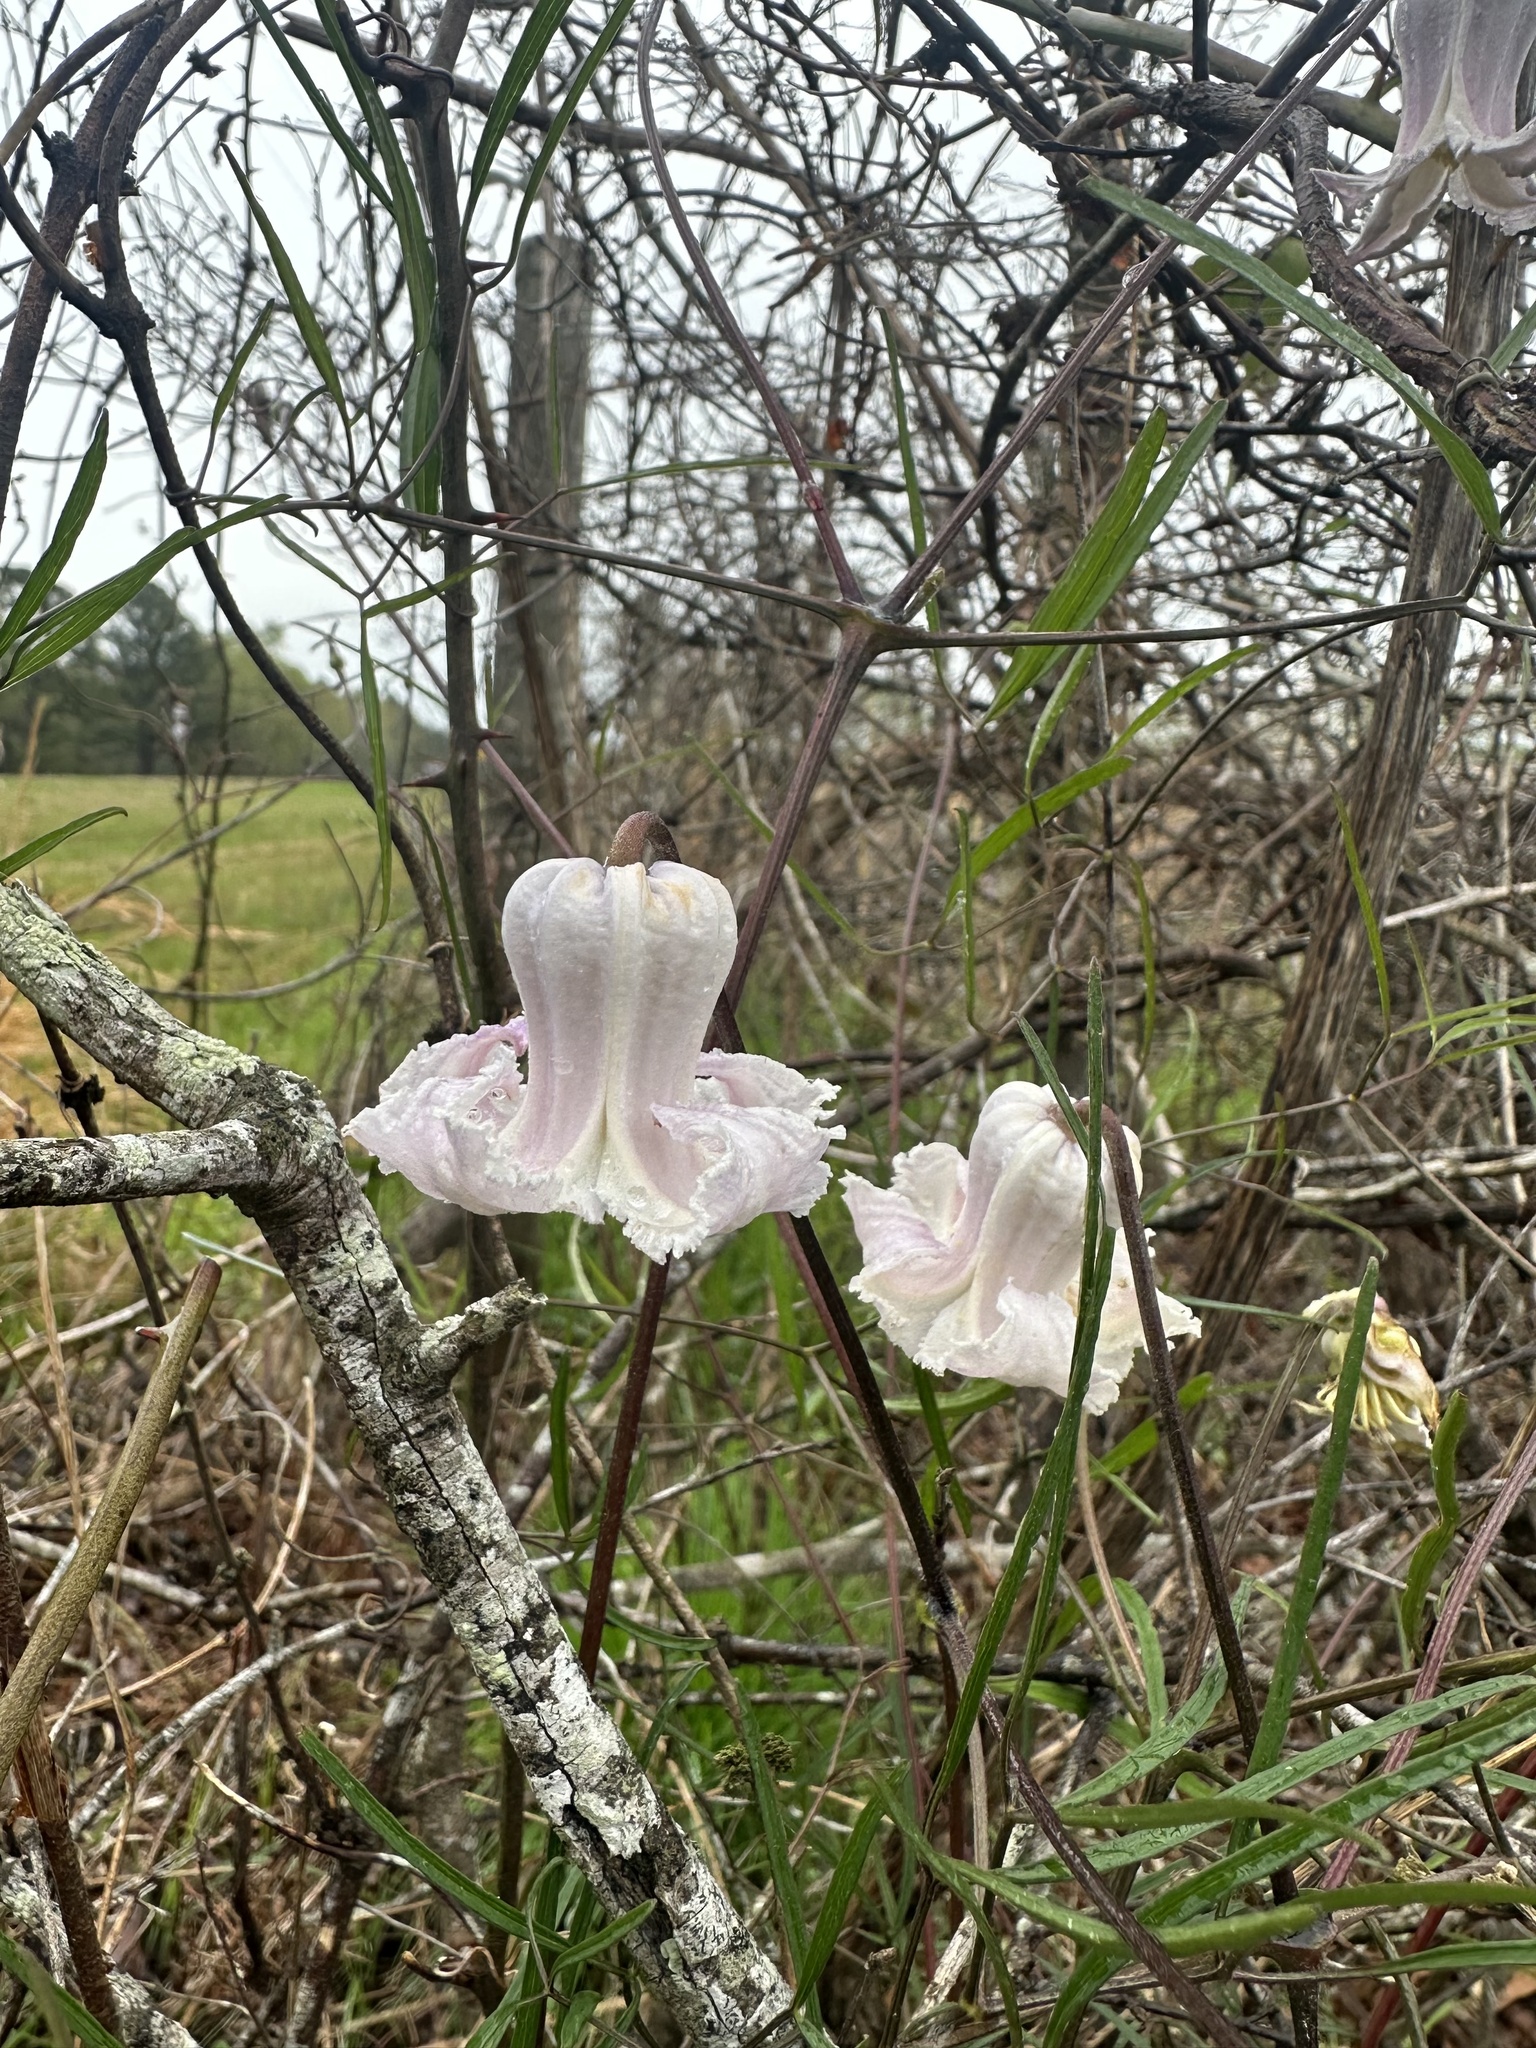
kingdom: Plantae
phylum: Tracheophyta
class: Magnoliopsida
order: Ranunculales
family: Ranunculaceae
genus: Clematis
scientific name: Clematis crispa
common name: Curly clematis
